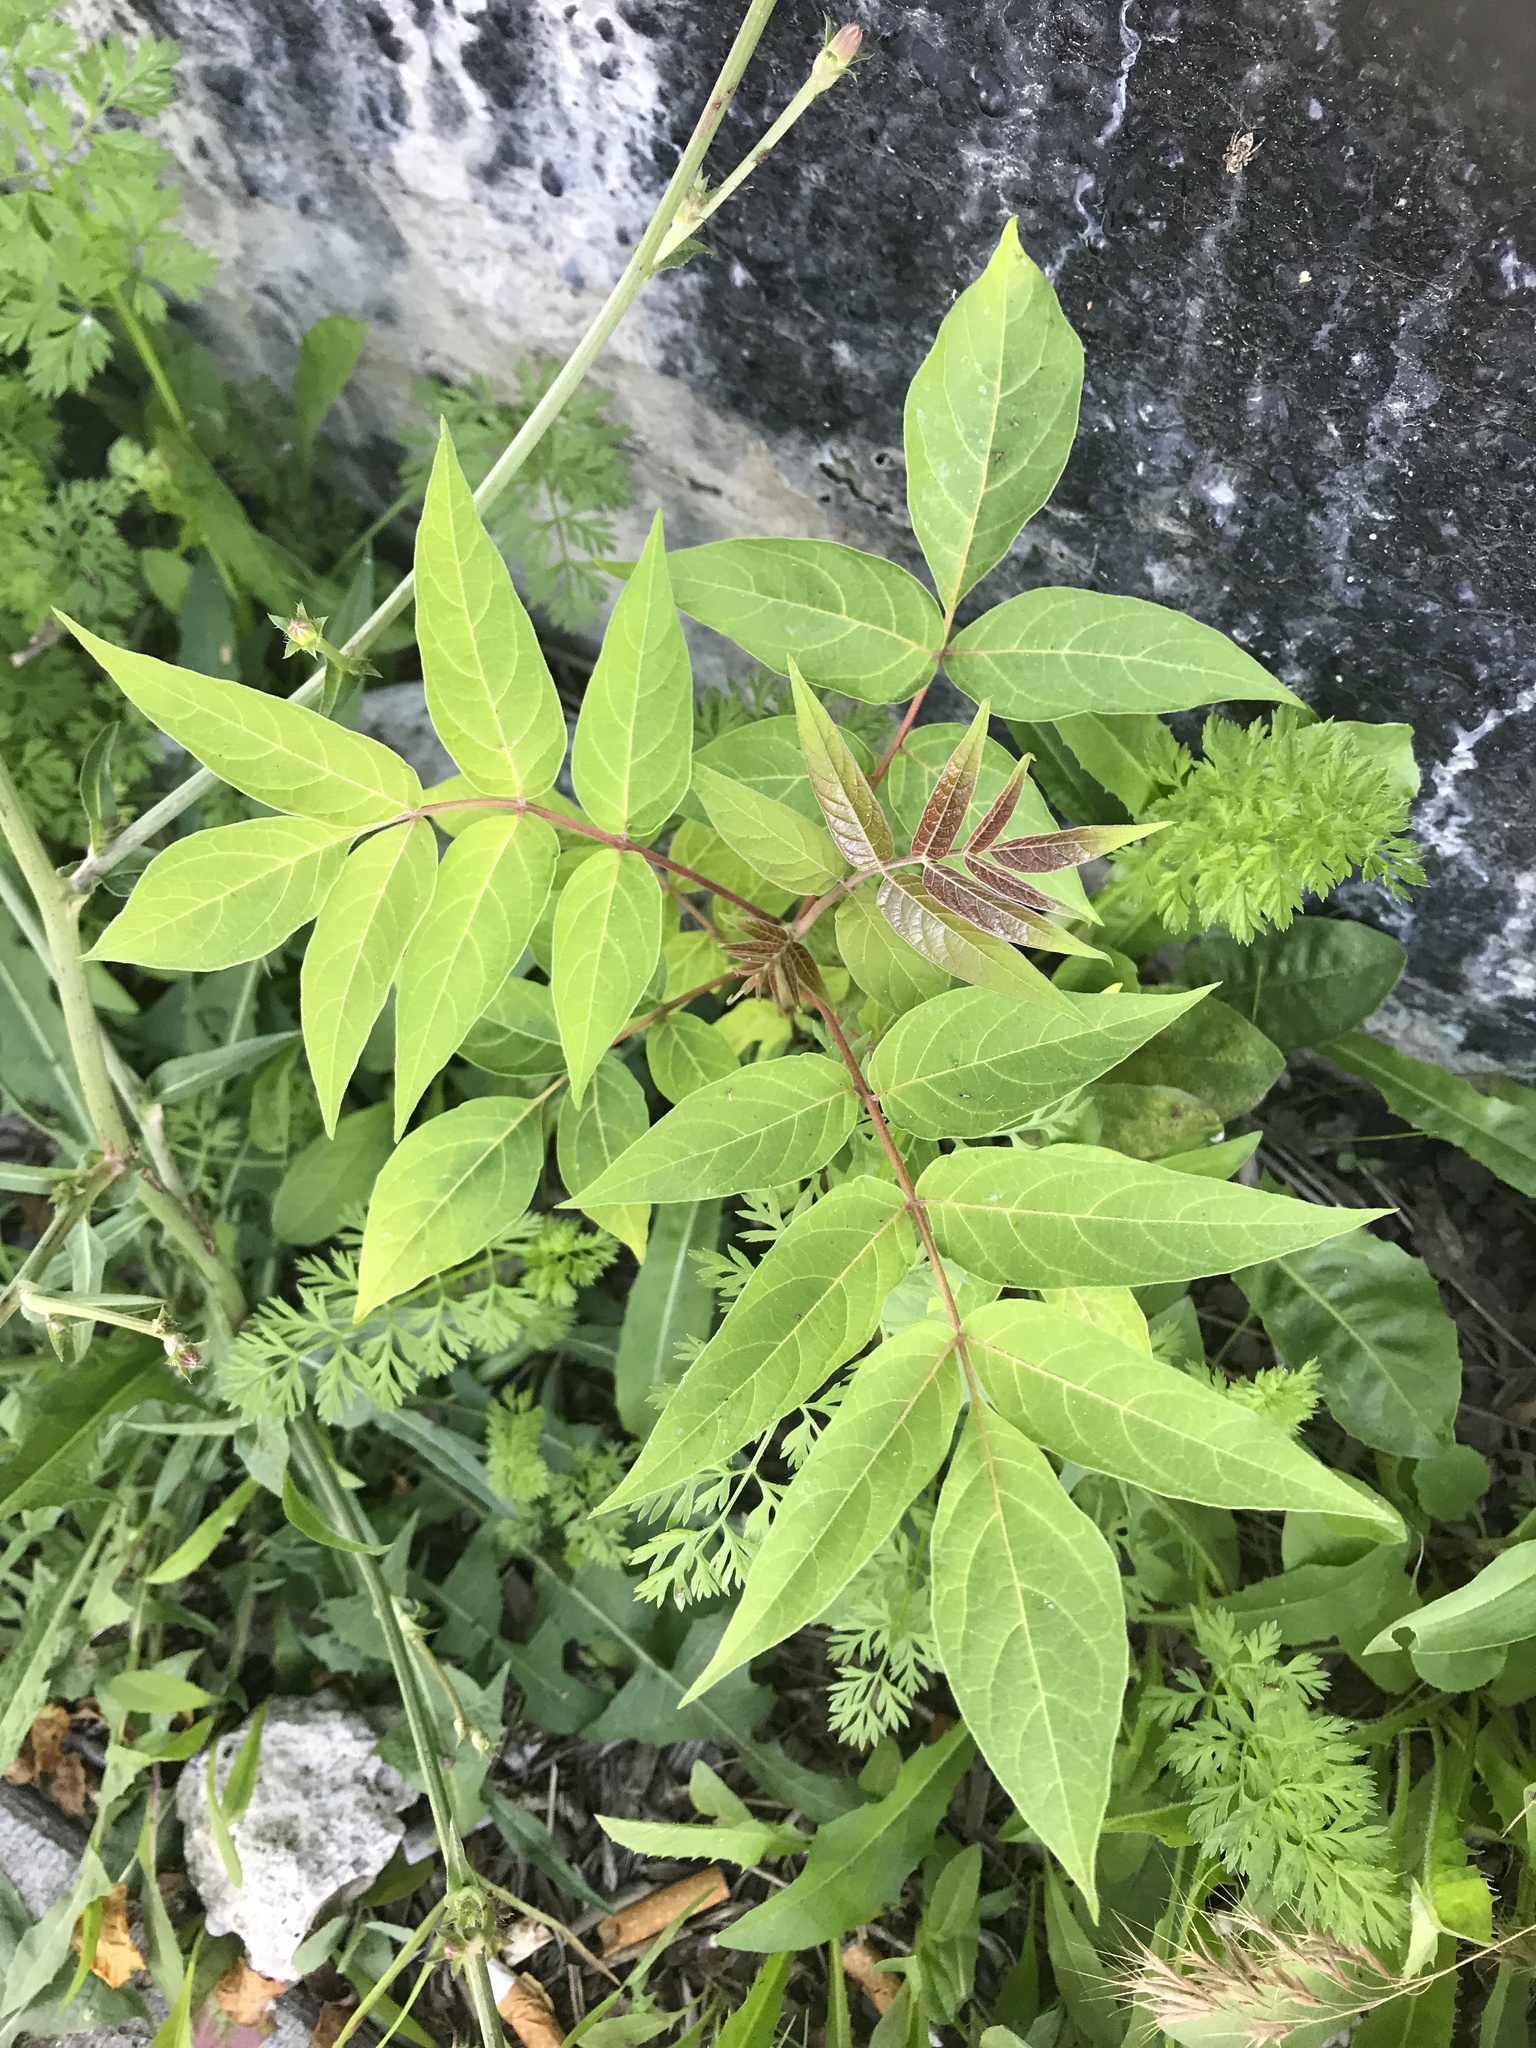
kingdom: Plantae
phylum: Tracheophyta
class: Magnoliopsida
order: Sapindales
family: Simaroubaceae
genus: Ailanthus
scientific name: Ailanthus altissima
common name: Tree-of-heaven
